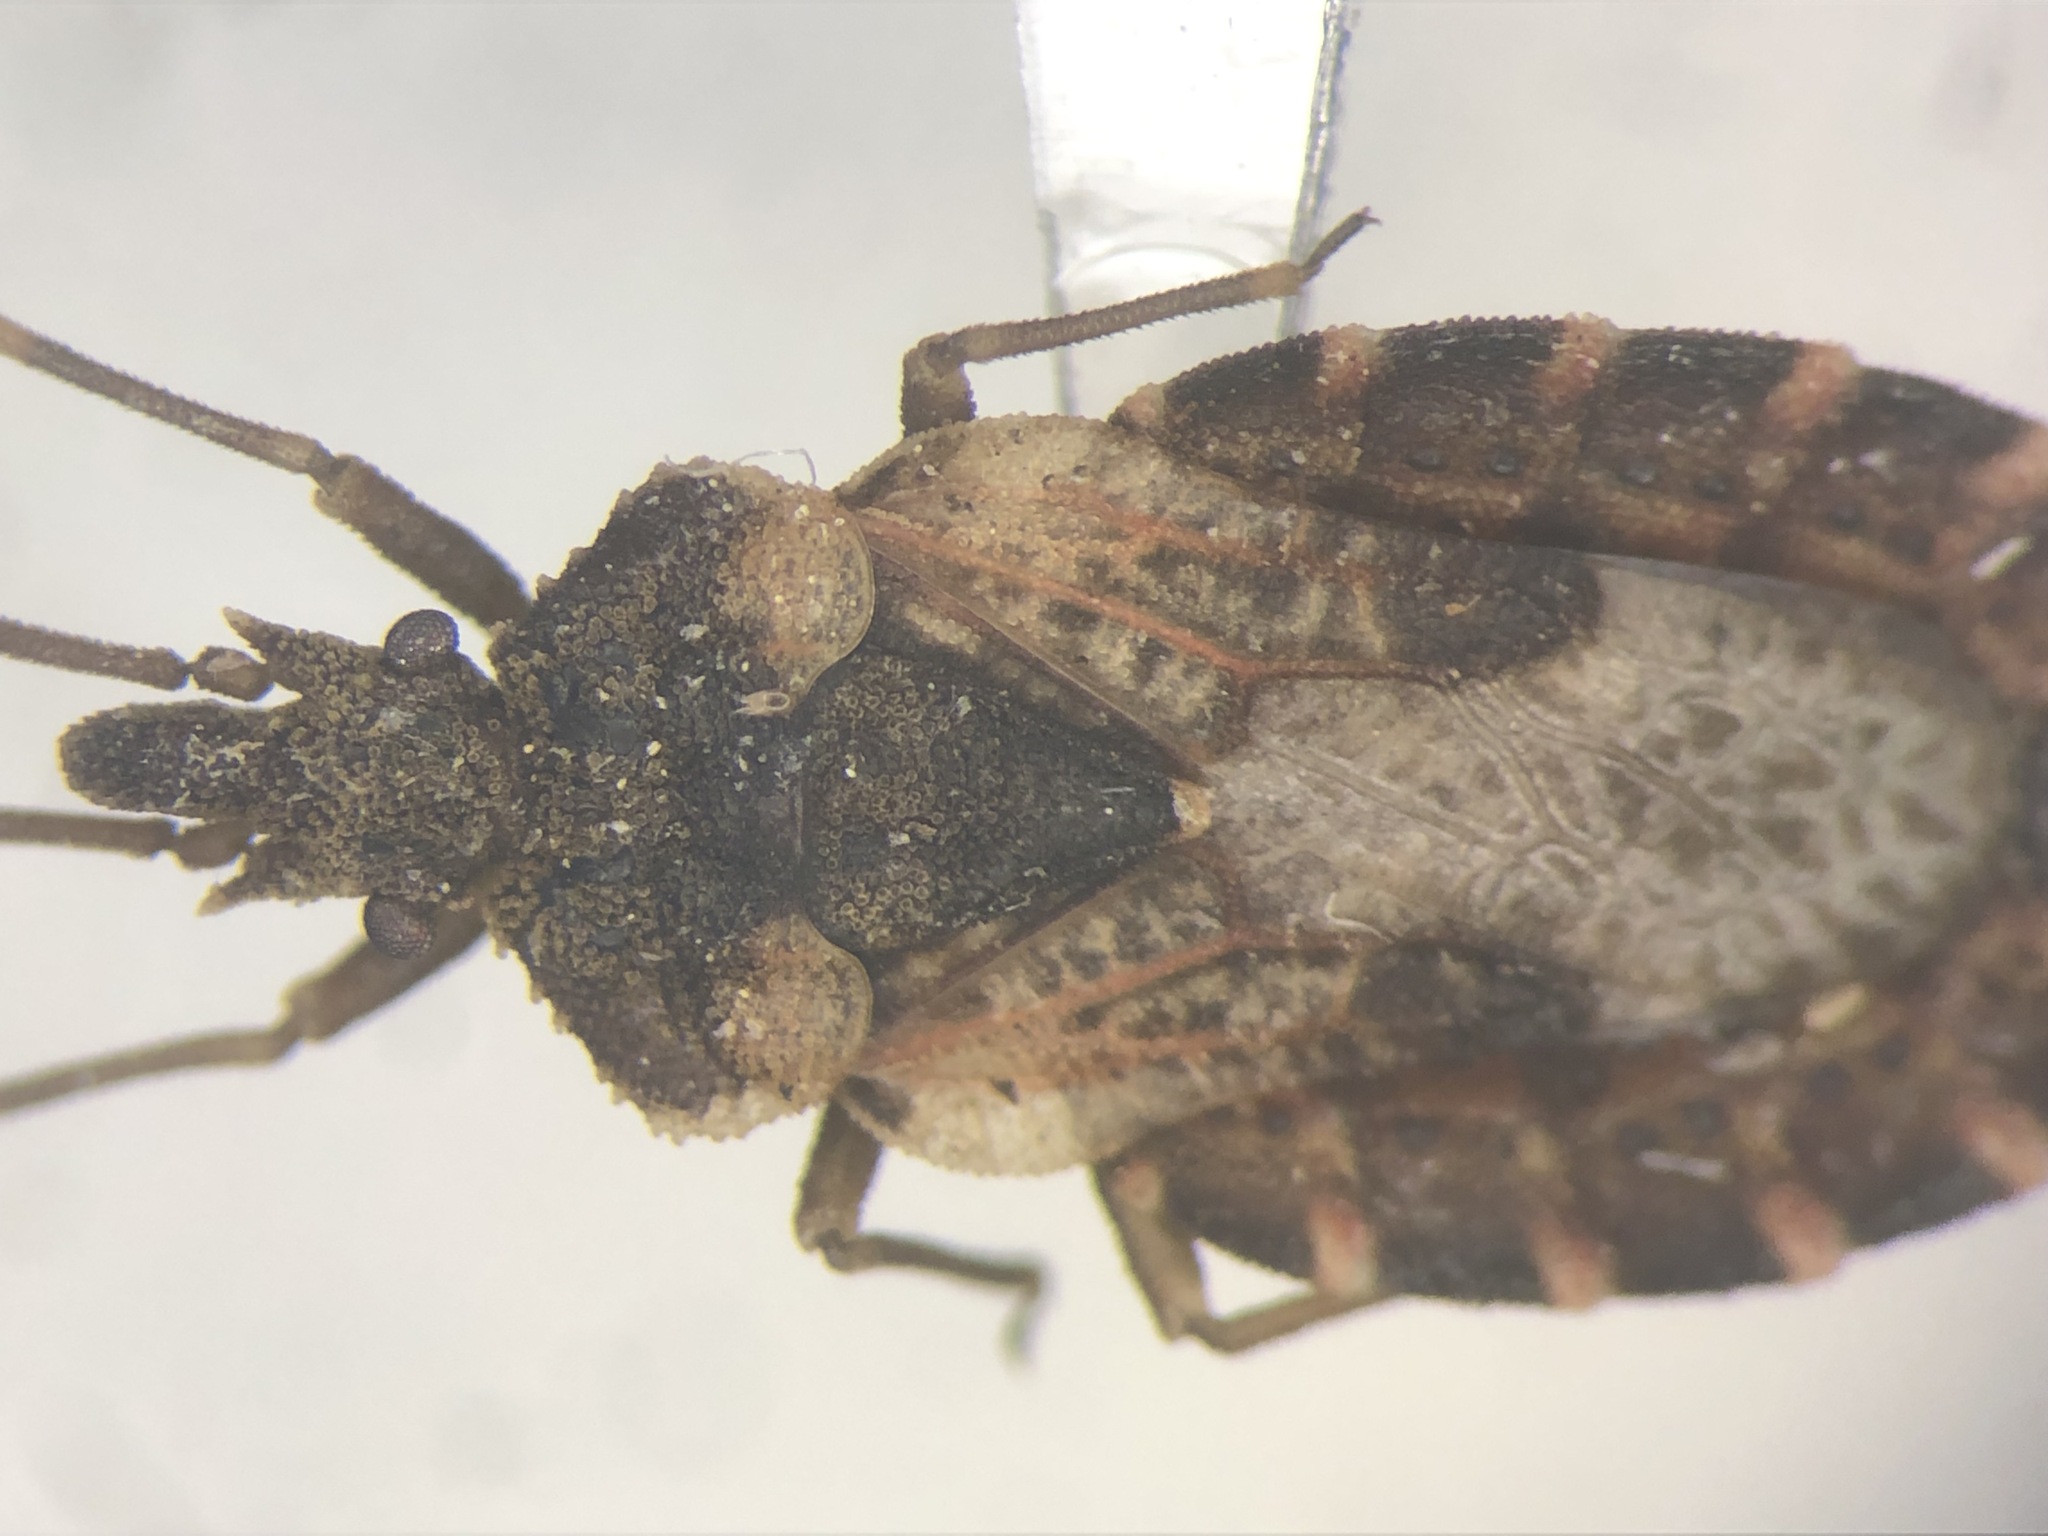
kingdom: Animalia
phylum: Arthropoda
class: Insecta
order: Hemiptera
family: Aradidae
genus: Aradus
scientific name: Aradus proboscideus
